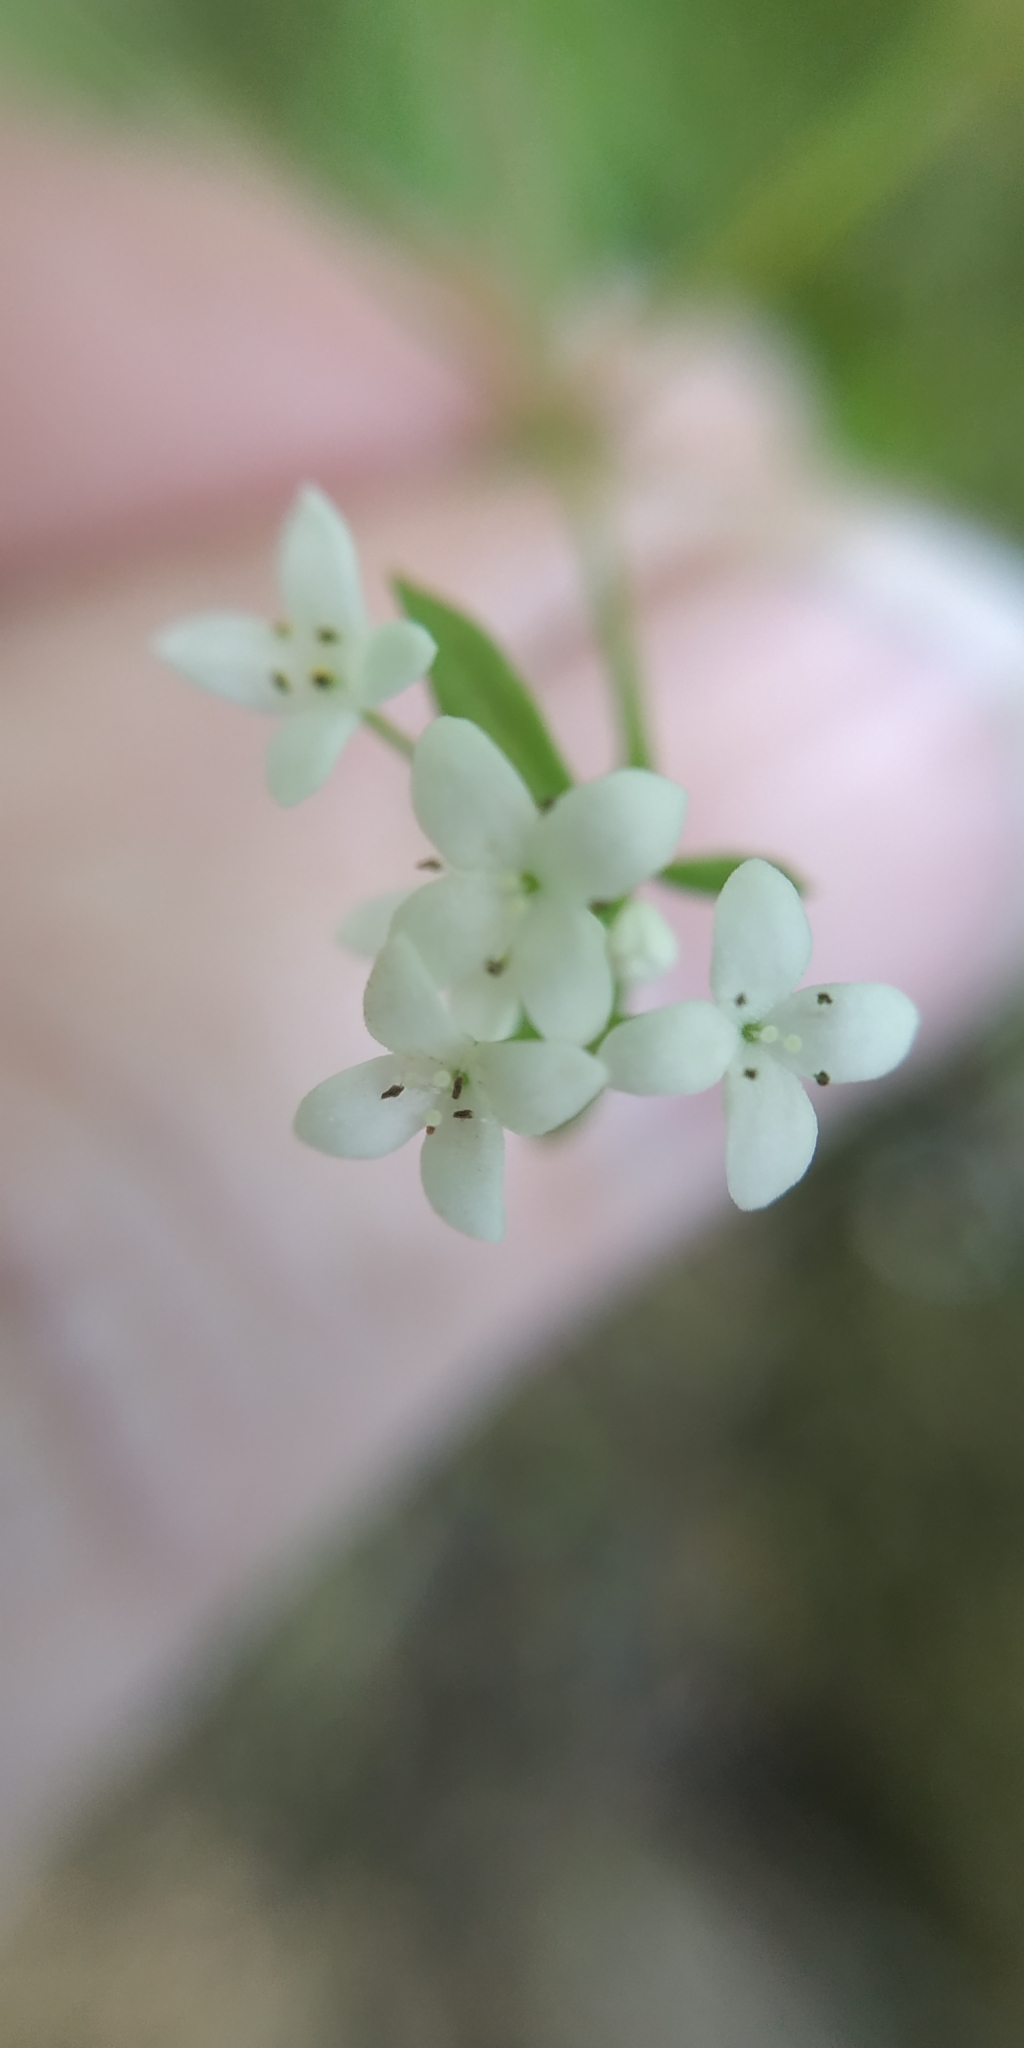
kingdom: Plantae
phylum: Tracheophyta
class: Magnoliopsida
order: Gentianales
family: Rubiaceae
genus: Galium
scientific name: Galium palustre
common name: Common marsh-bedstraw
